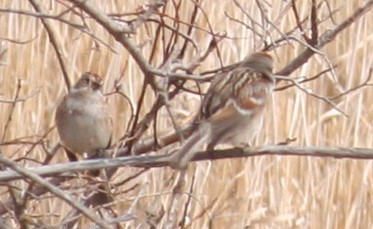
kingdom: Animalia
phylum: Chordata
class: Aves
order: Passeriformes
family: Passerellidae
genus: Spizelloides
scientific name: Spizelloides arborea
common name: American tree sparrow
